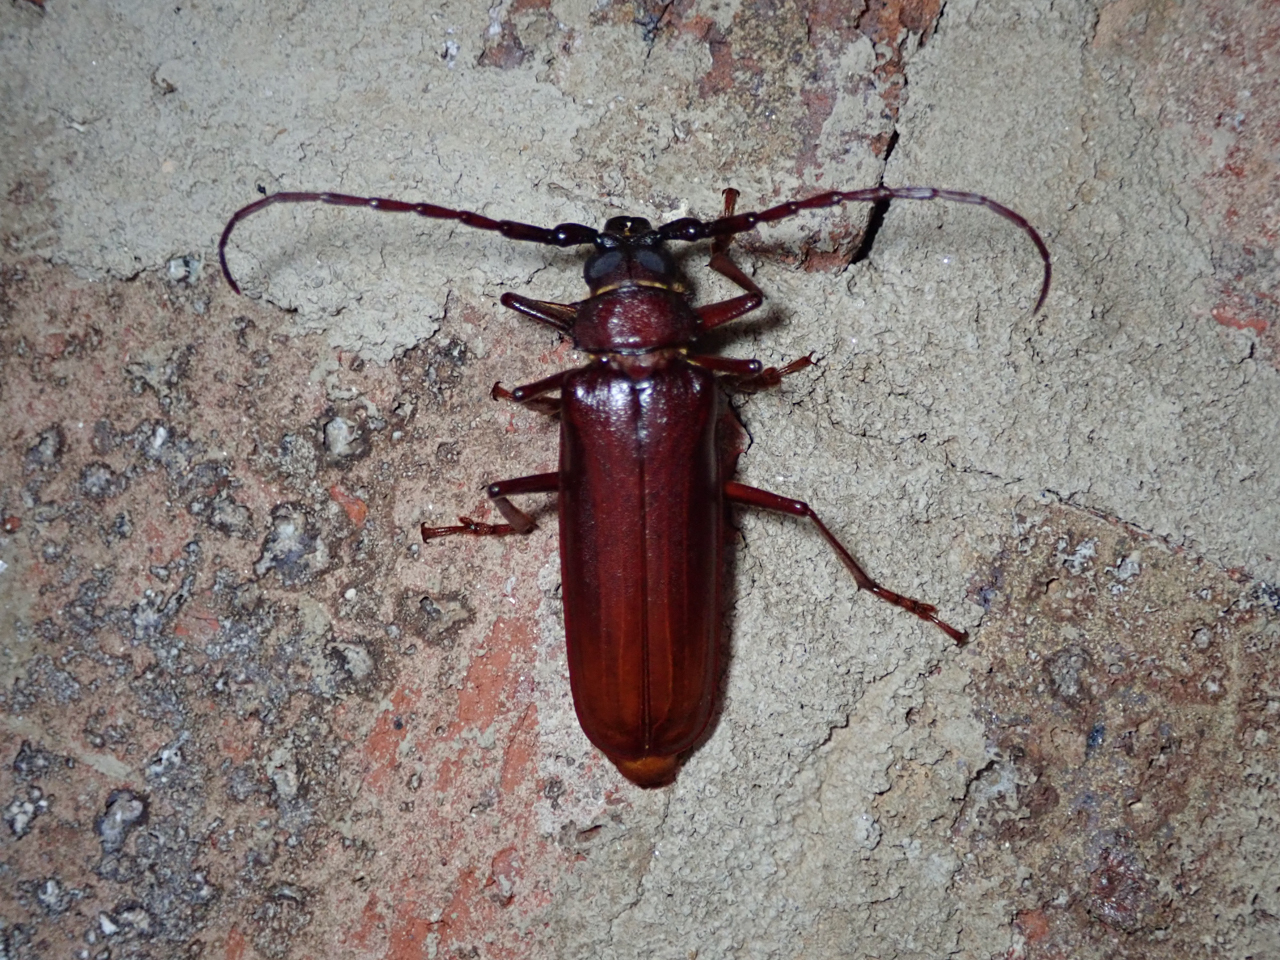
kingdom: Animalia
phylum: Arthropoda
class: Insecta
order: Coleoptera
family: Cerambycidae
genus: Orthosoma
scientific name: Orthosoma brunneum
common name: Brown prionid beetle
